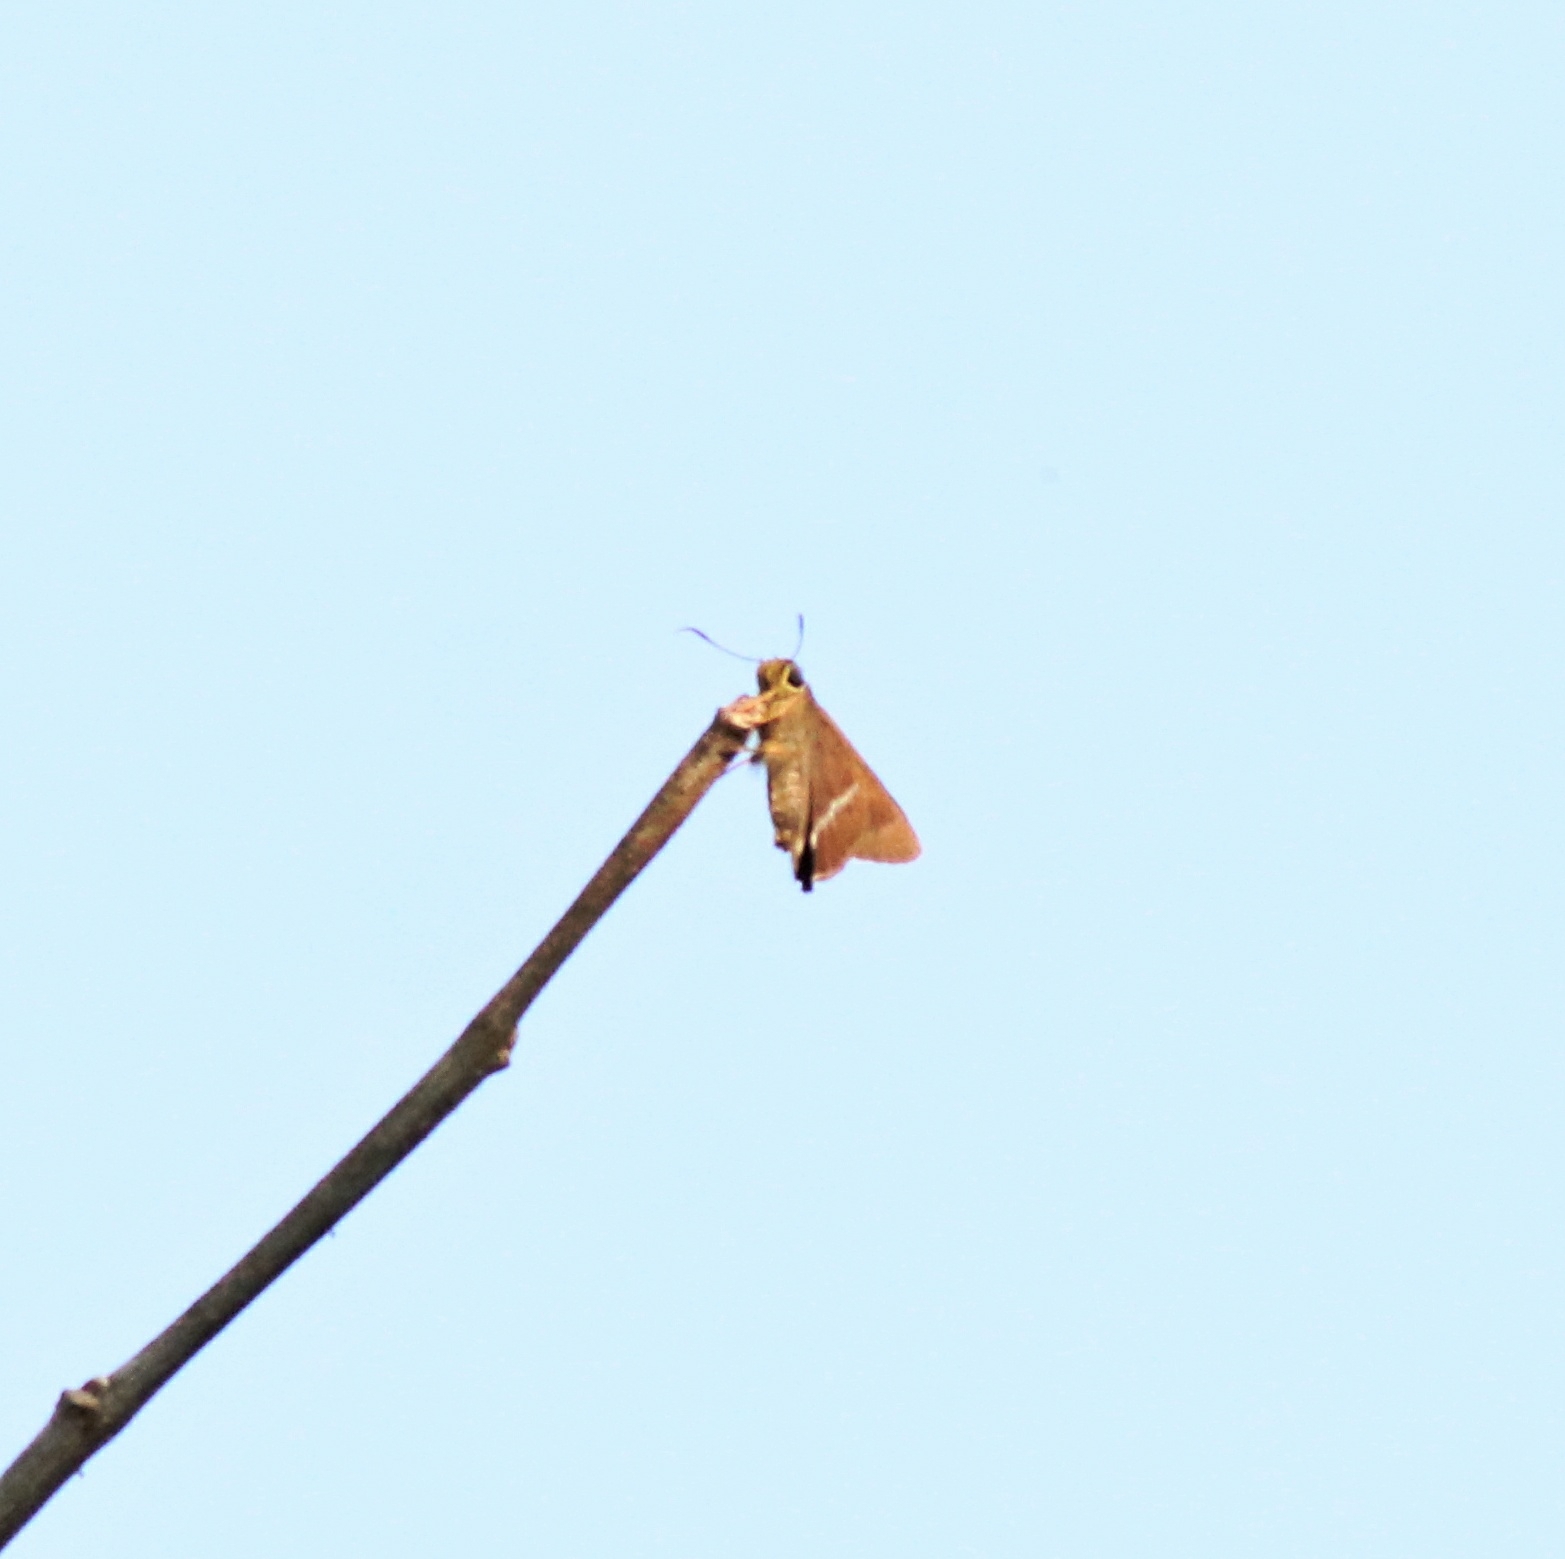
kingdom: Animalia
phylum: Arthropoda
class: Insecta
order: Lepidoptera
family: Hesperiidae
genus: Hasora
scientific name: Hasora chromus
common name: Common banded awl
